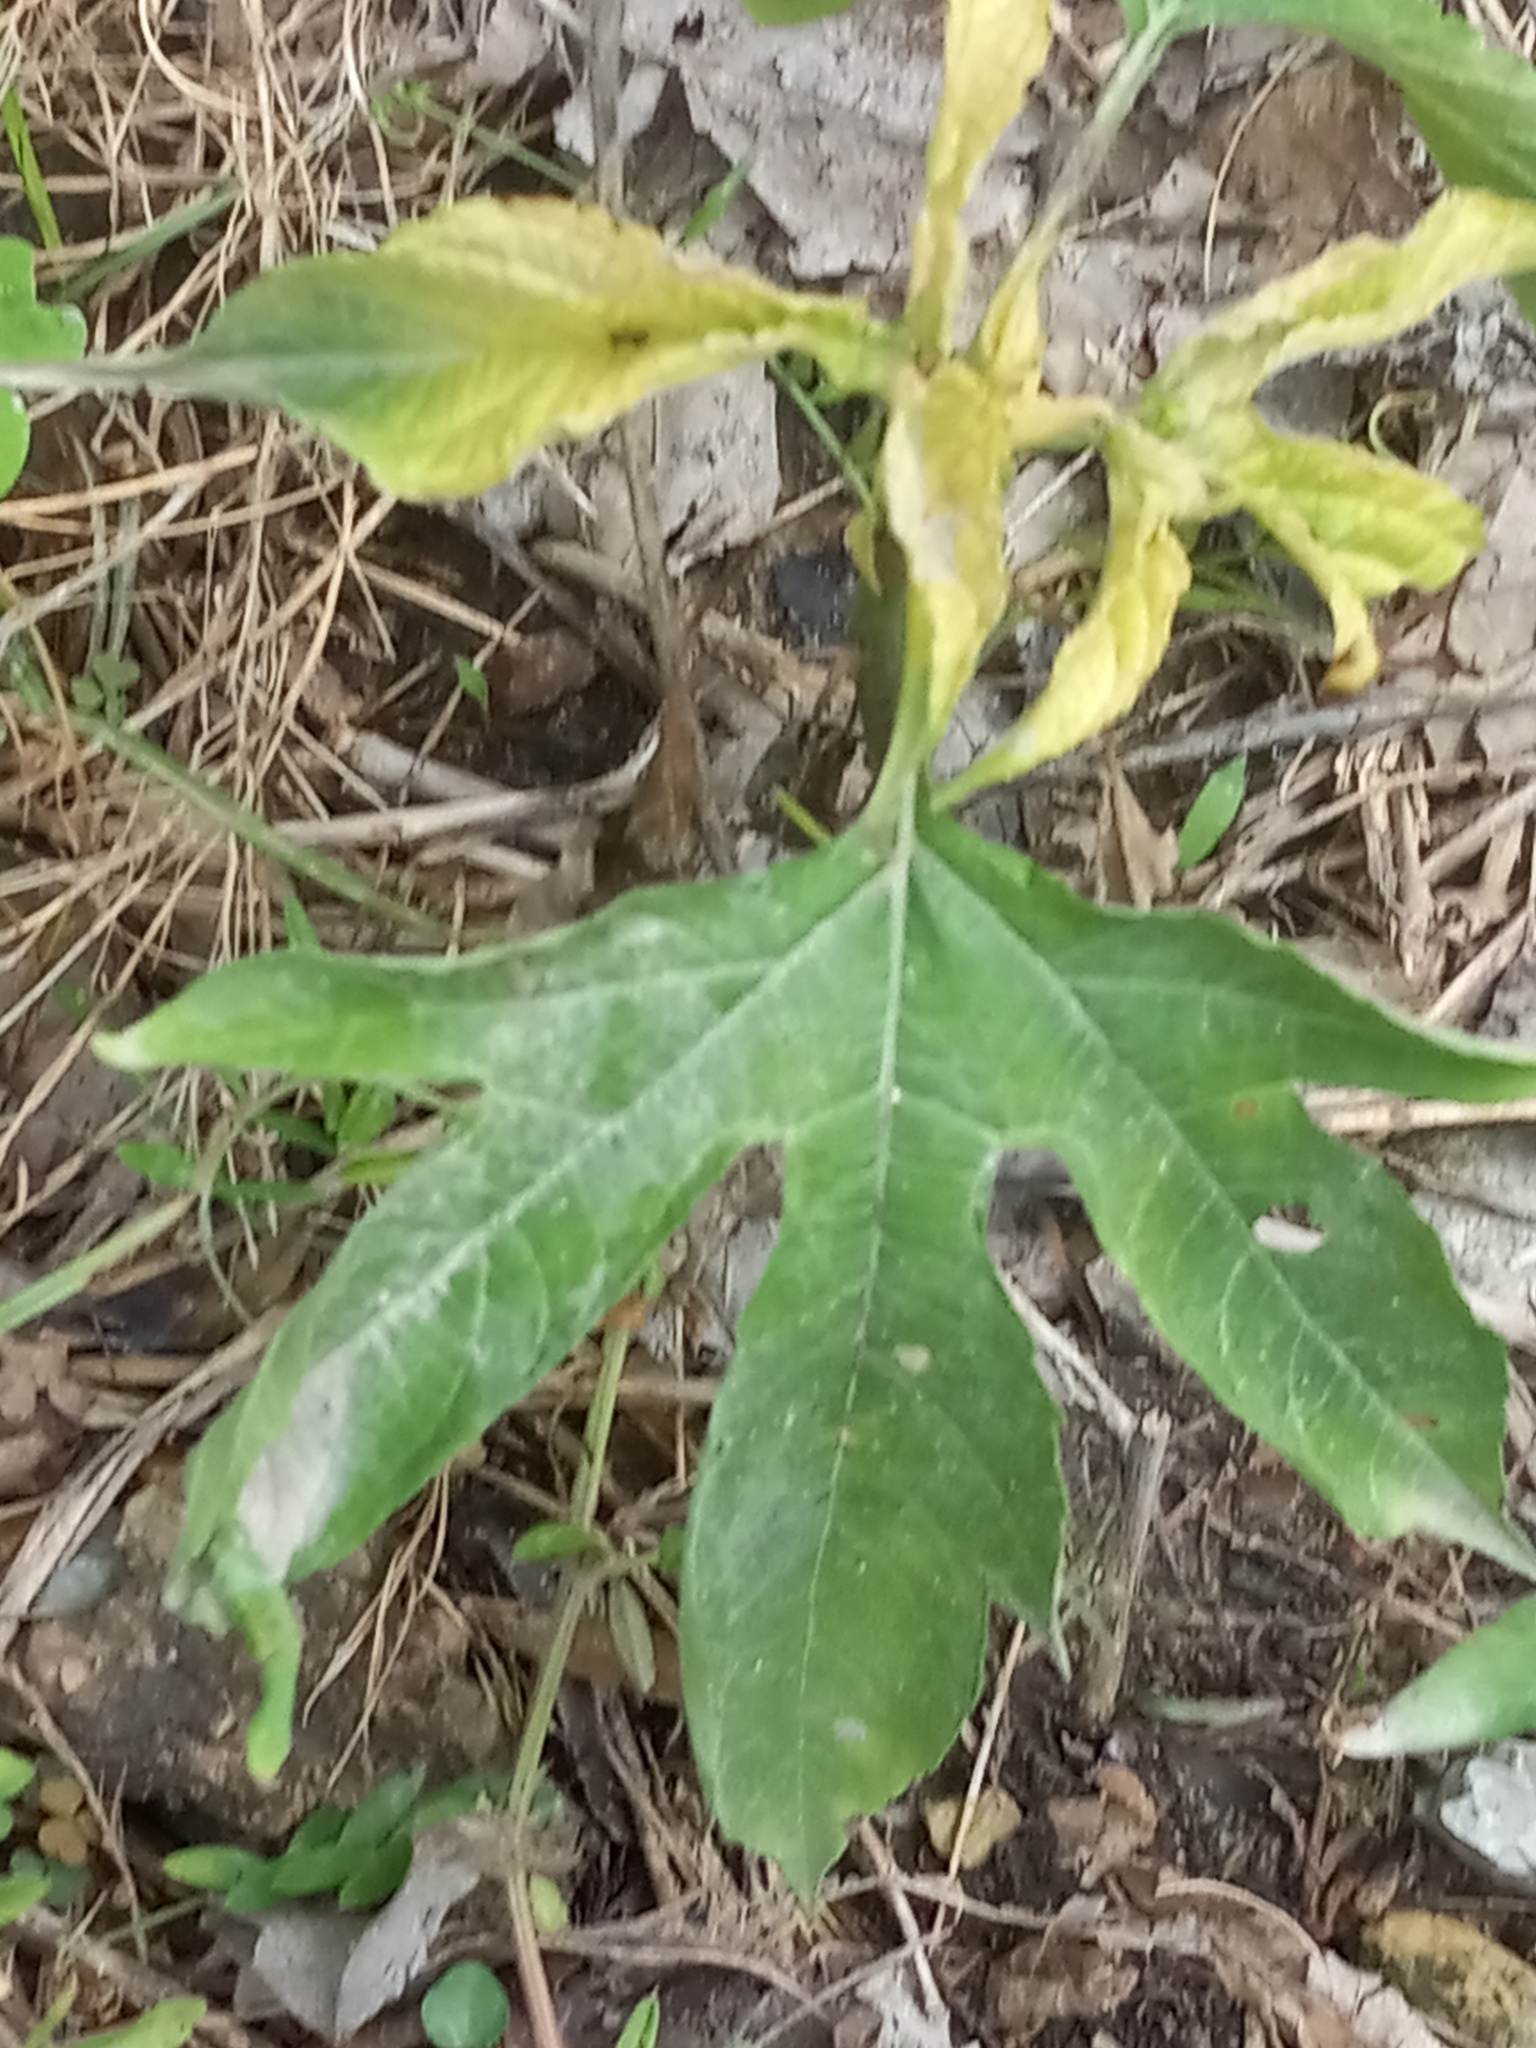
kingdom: Plantae
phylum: Tracheophyta
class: Magnoliopsida
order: Asterales
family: Asteraceae
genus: Ambrosia
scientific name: Ambrosia trifida
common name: Giant ragweed
